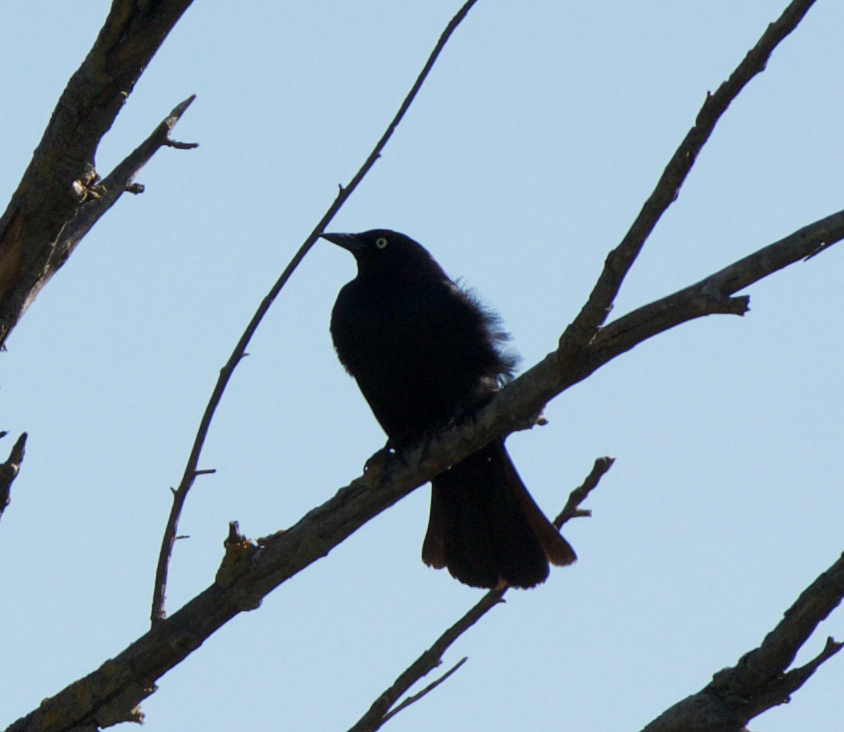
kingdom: Animalia
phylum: Chordata
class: Aves
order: Passeriformes
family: Icteridae
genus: Euphagus
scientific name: Euphagus cyanocephalus
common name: Brewer's blackbird
